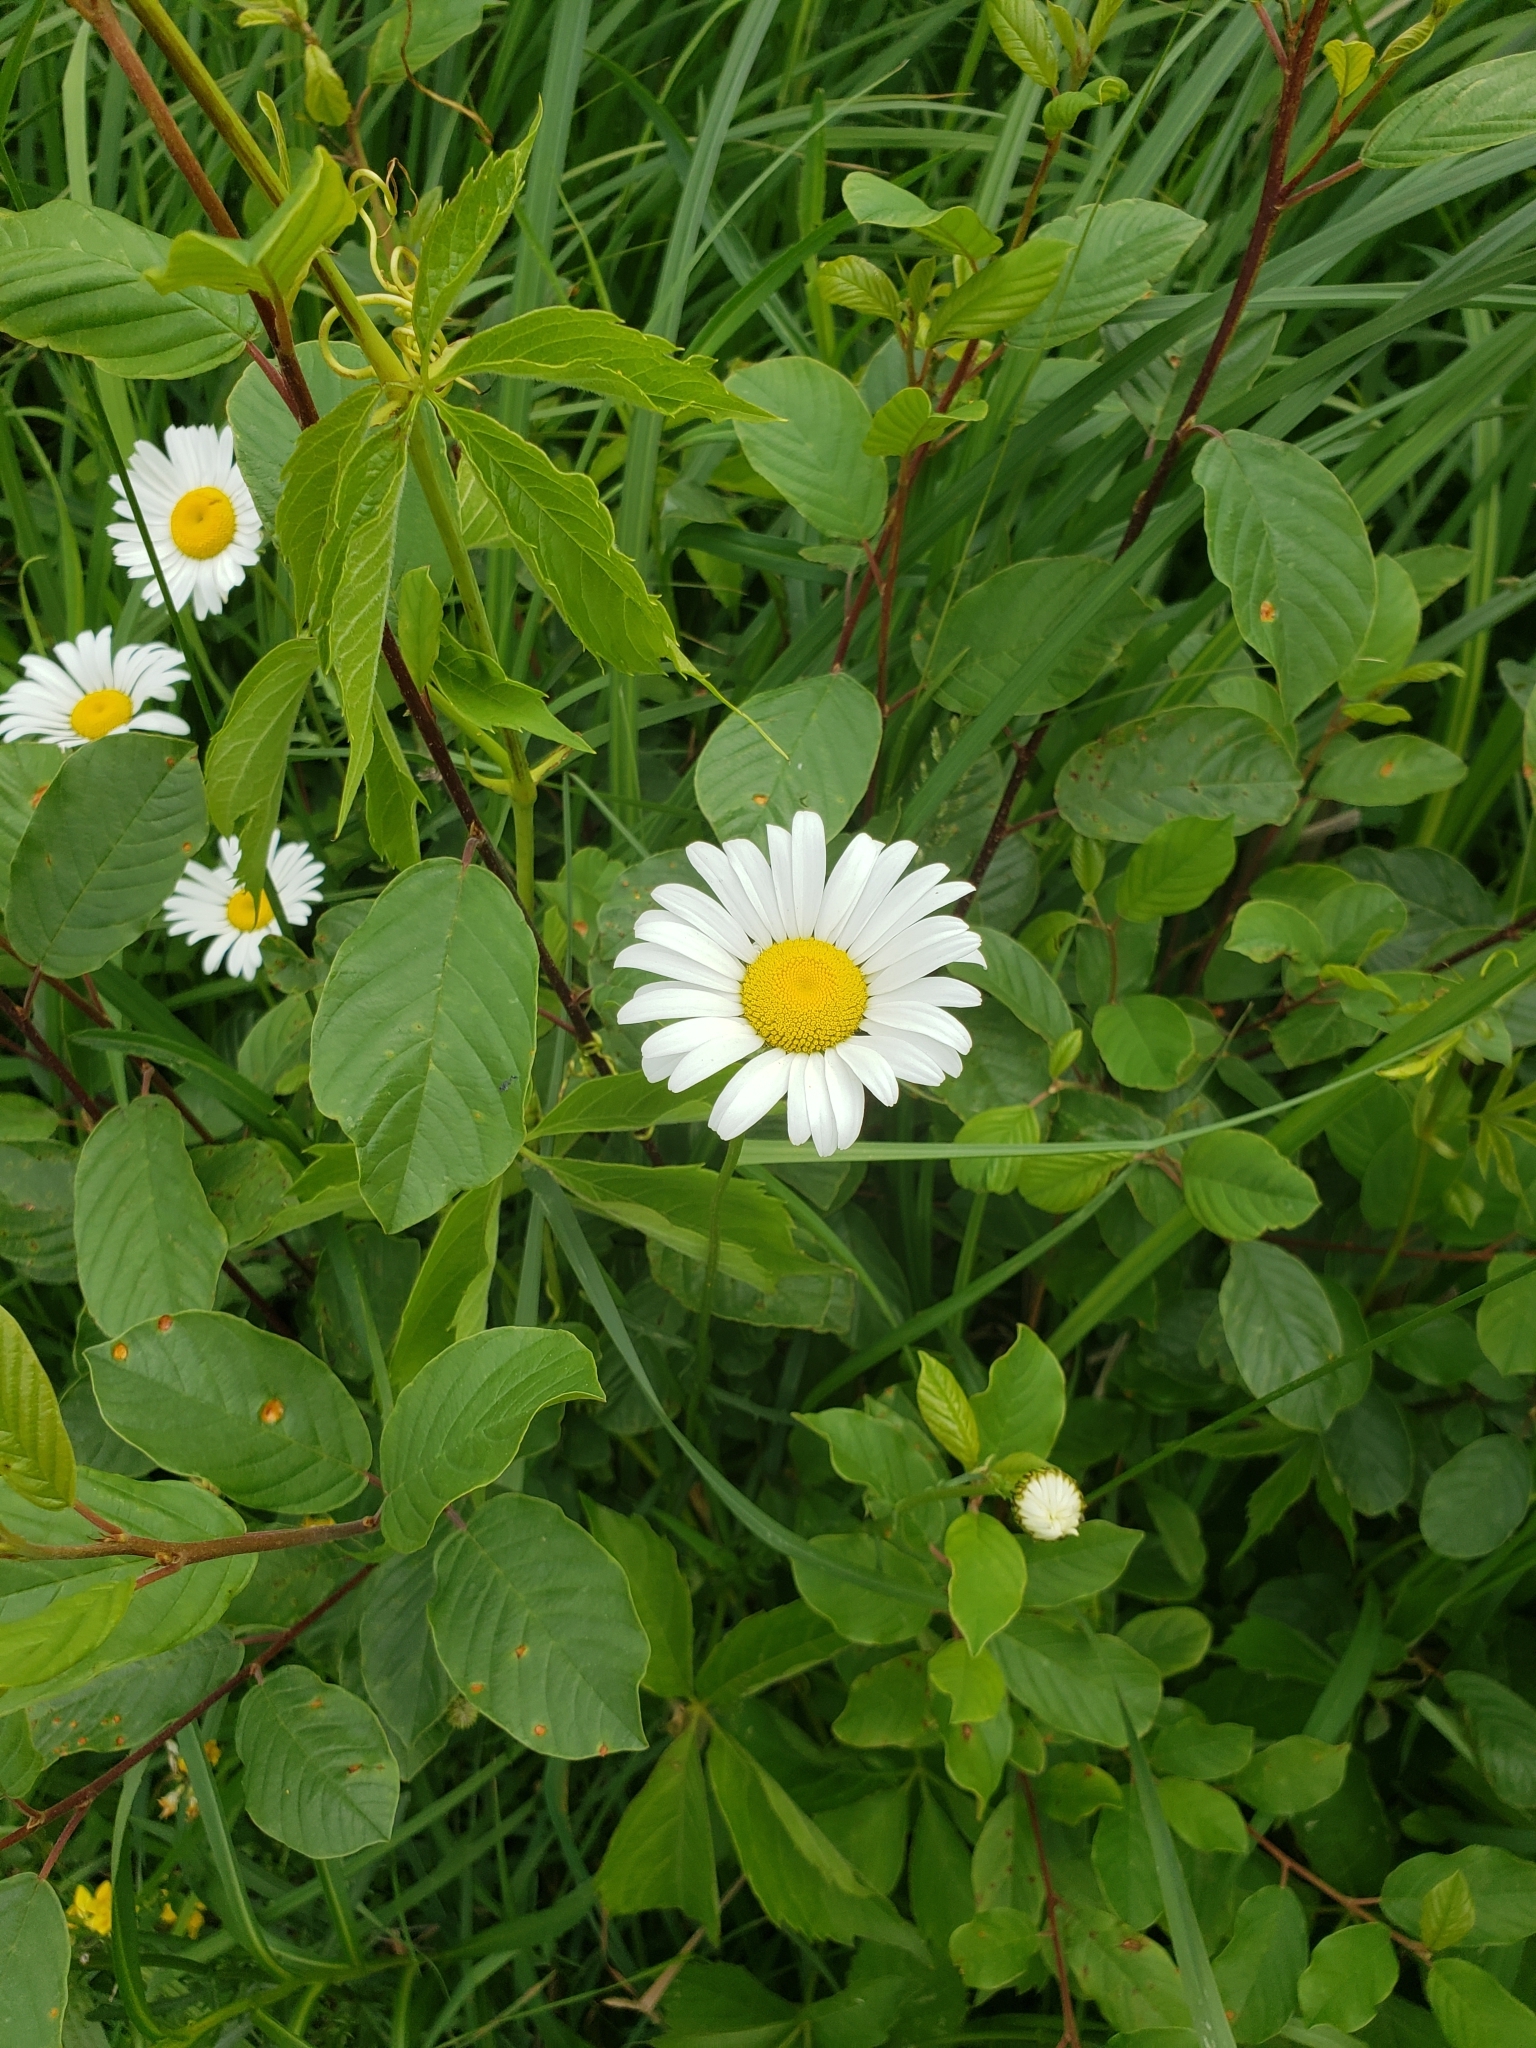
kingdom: Plantae
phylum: Tracheophyta
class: Magnoliopsida
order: Asterales
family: Asteraceae
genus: Leucanthemum
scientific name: Leucanthemum vulgare
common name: Oxeye daisy
